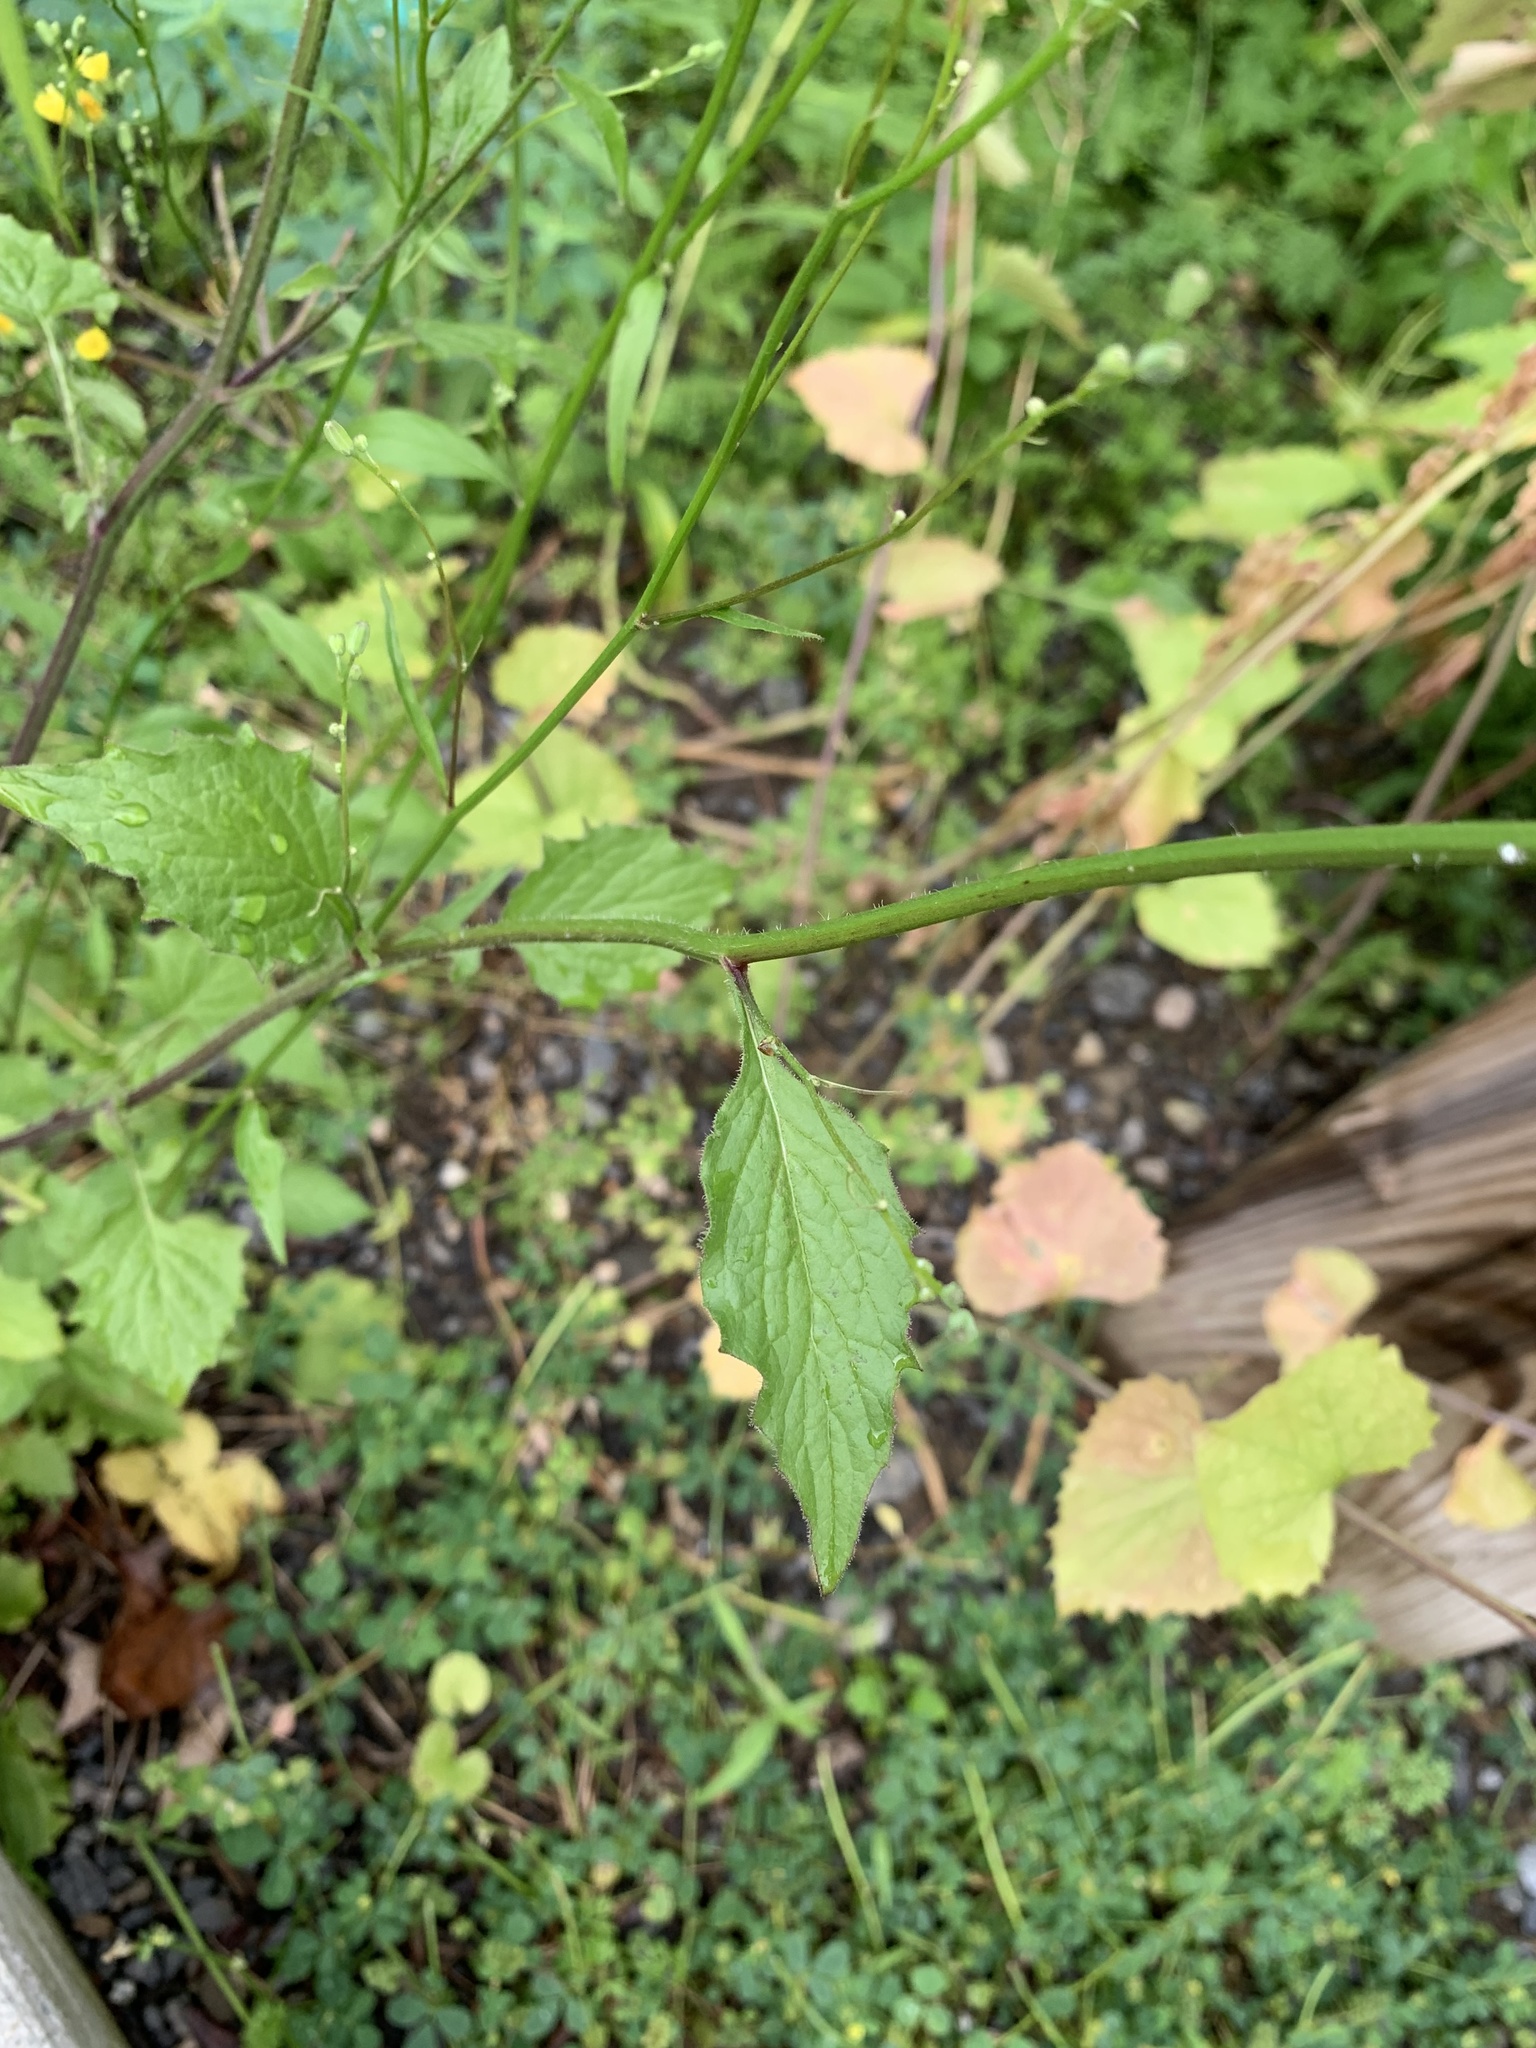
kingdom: Plantae
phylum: Tracheophyta
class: Magnoliopsida
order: Asterales
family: Asteraceae
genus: Lapsana
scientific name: Lapsana communis
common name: Nipplewort
